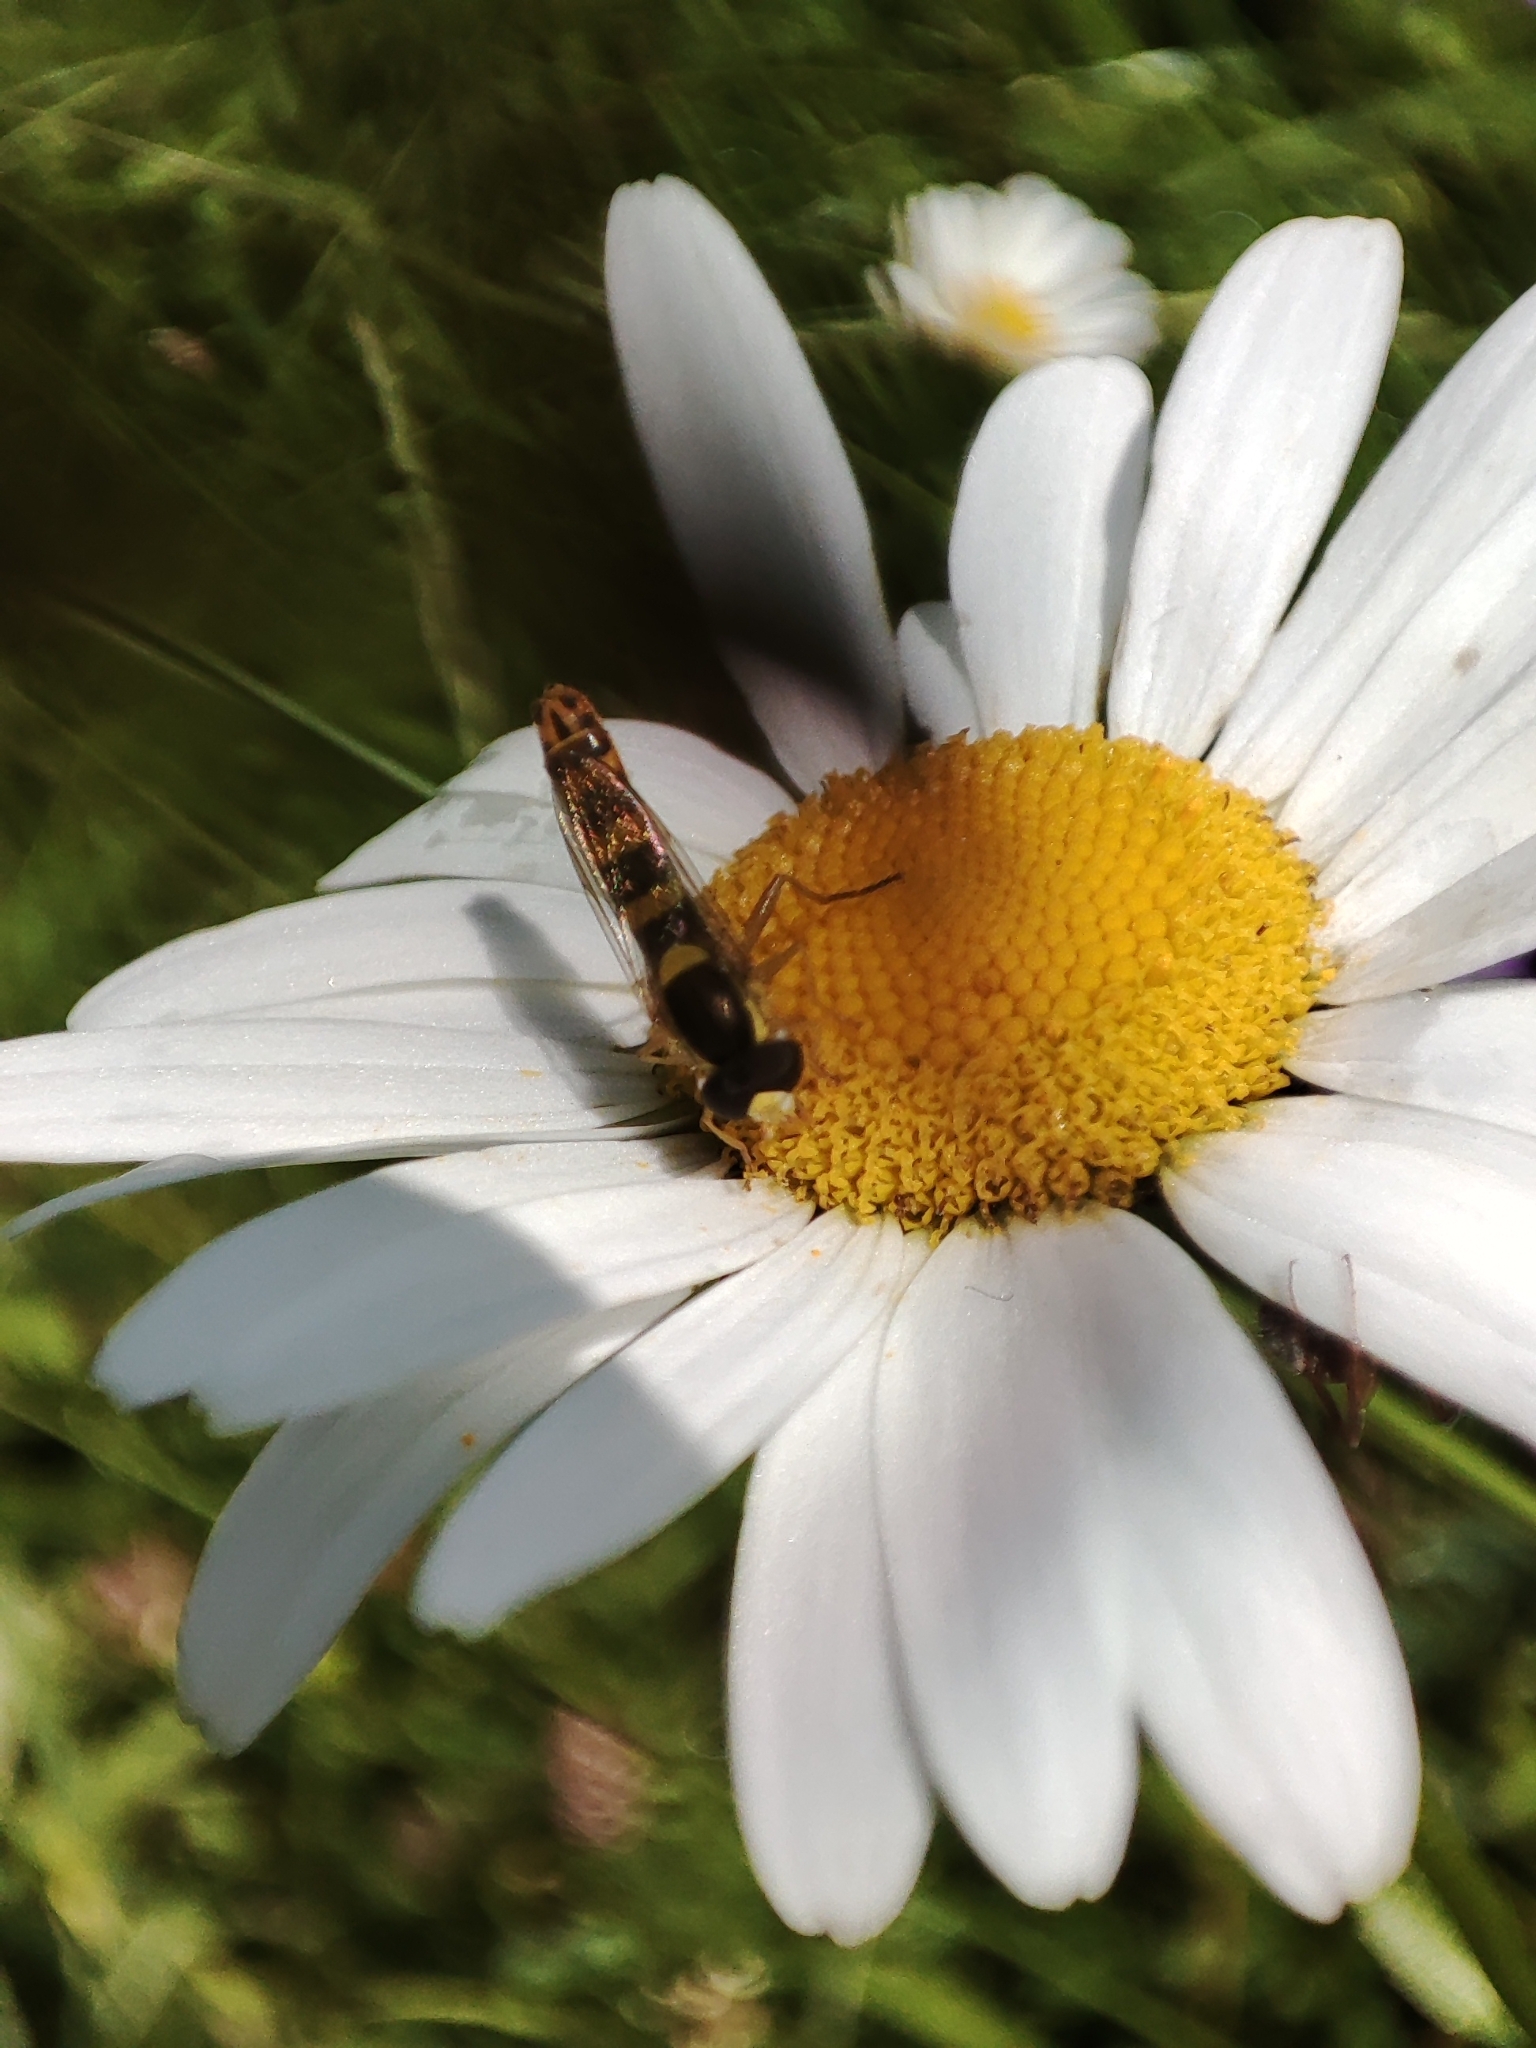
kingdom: Animalia
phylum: Arthropoda
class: Insecta
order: Diptera
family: Syrphidae
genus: Sphaerophoria
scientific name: Sphaerophoria scripta
